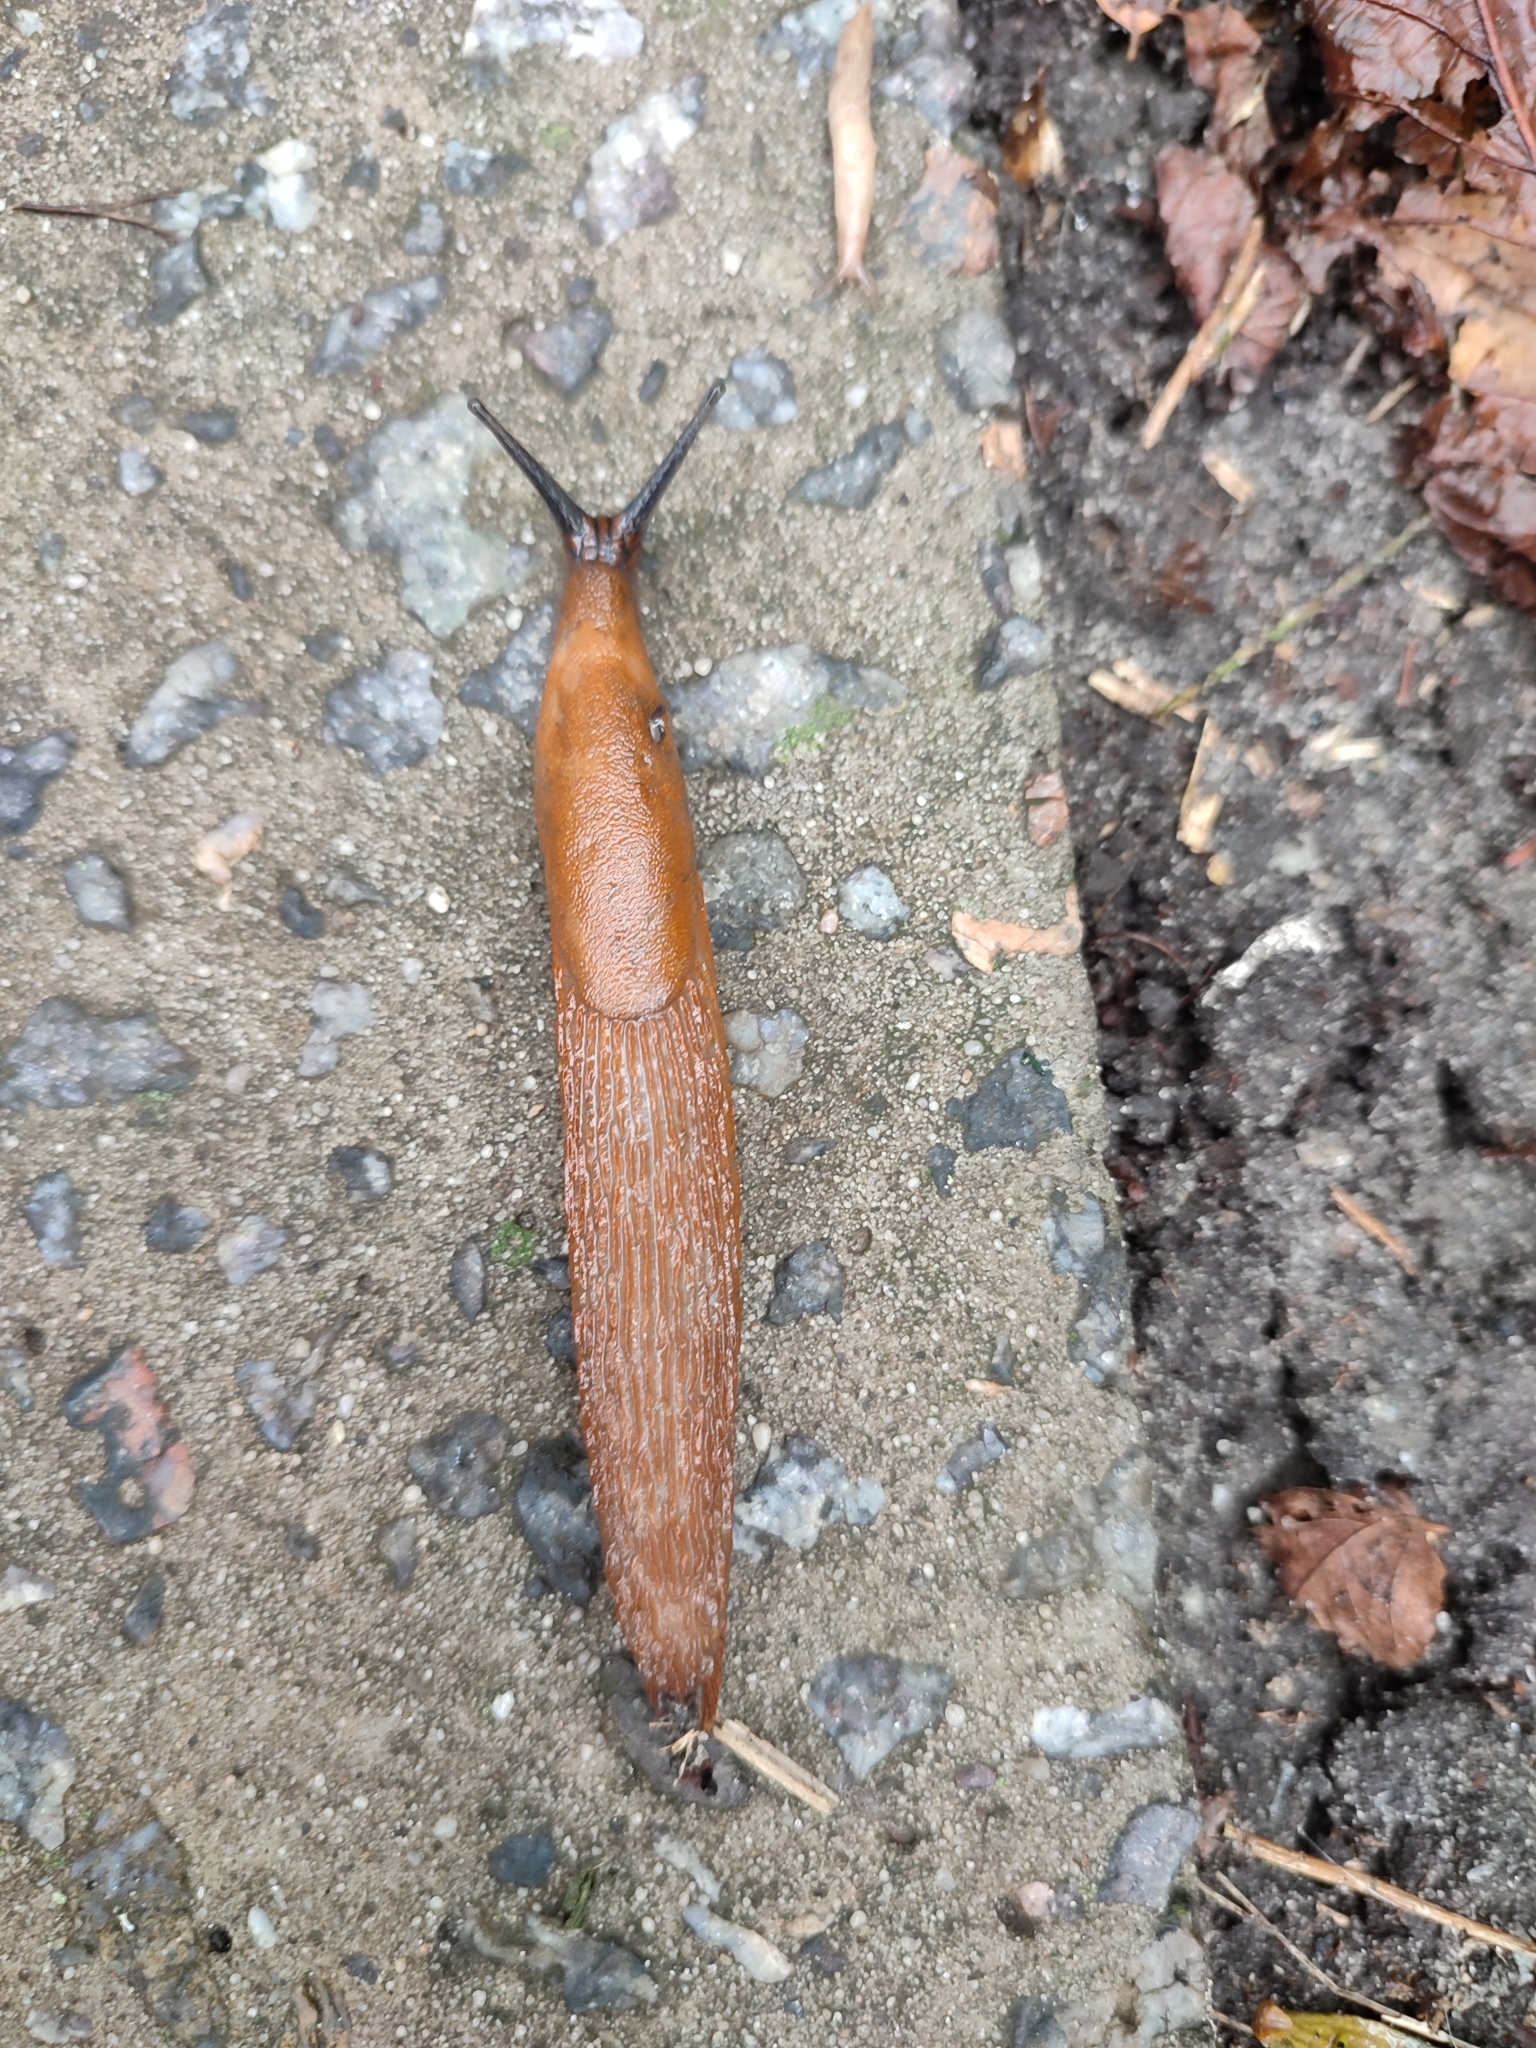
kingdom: Animalia
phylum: Mollusca
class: Gastropoda
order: Stylommatophora
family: Arionidae
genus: Arion
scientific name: Arion vulgaris
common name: Lusitanian slug
